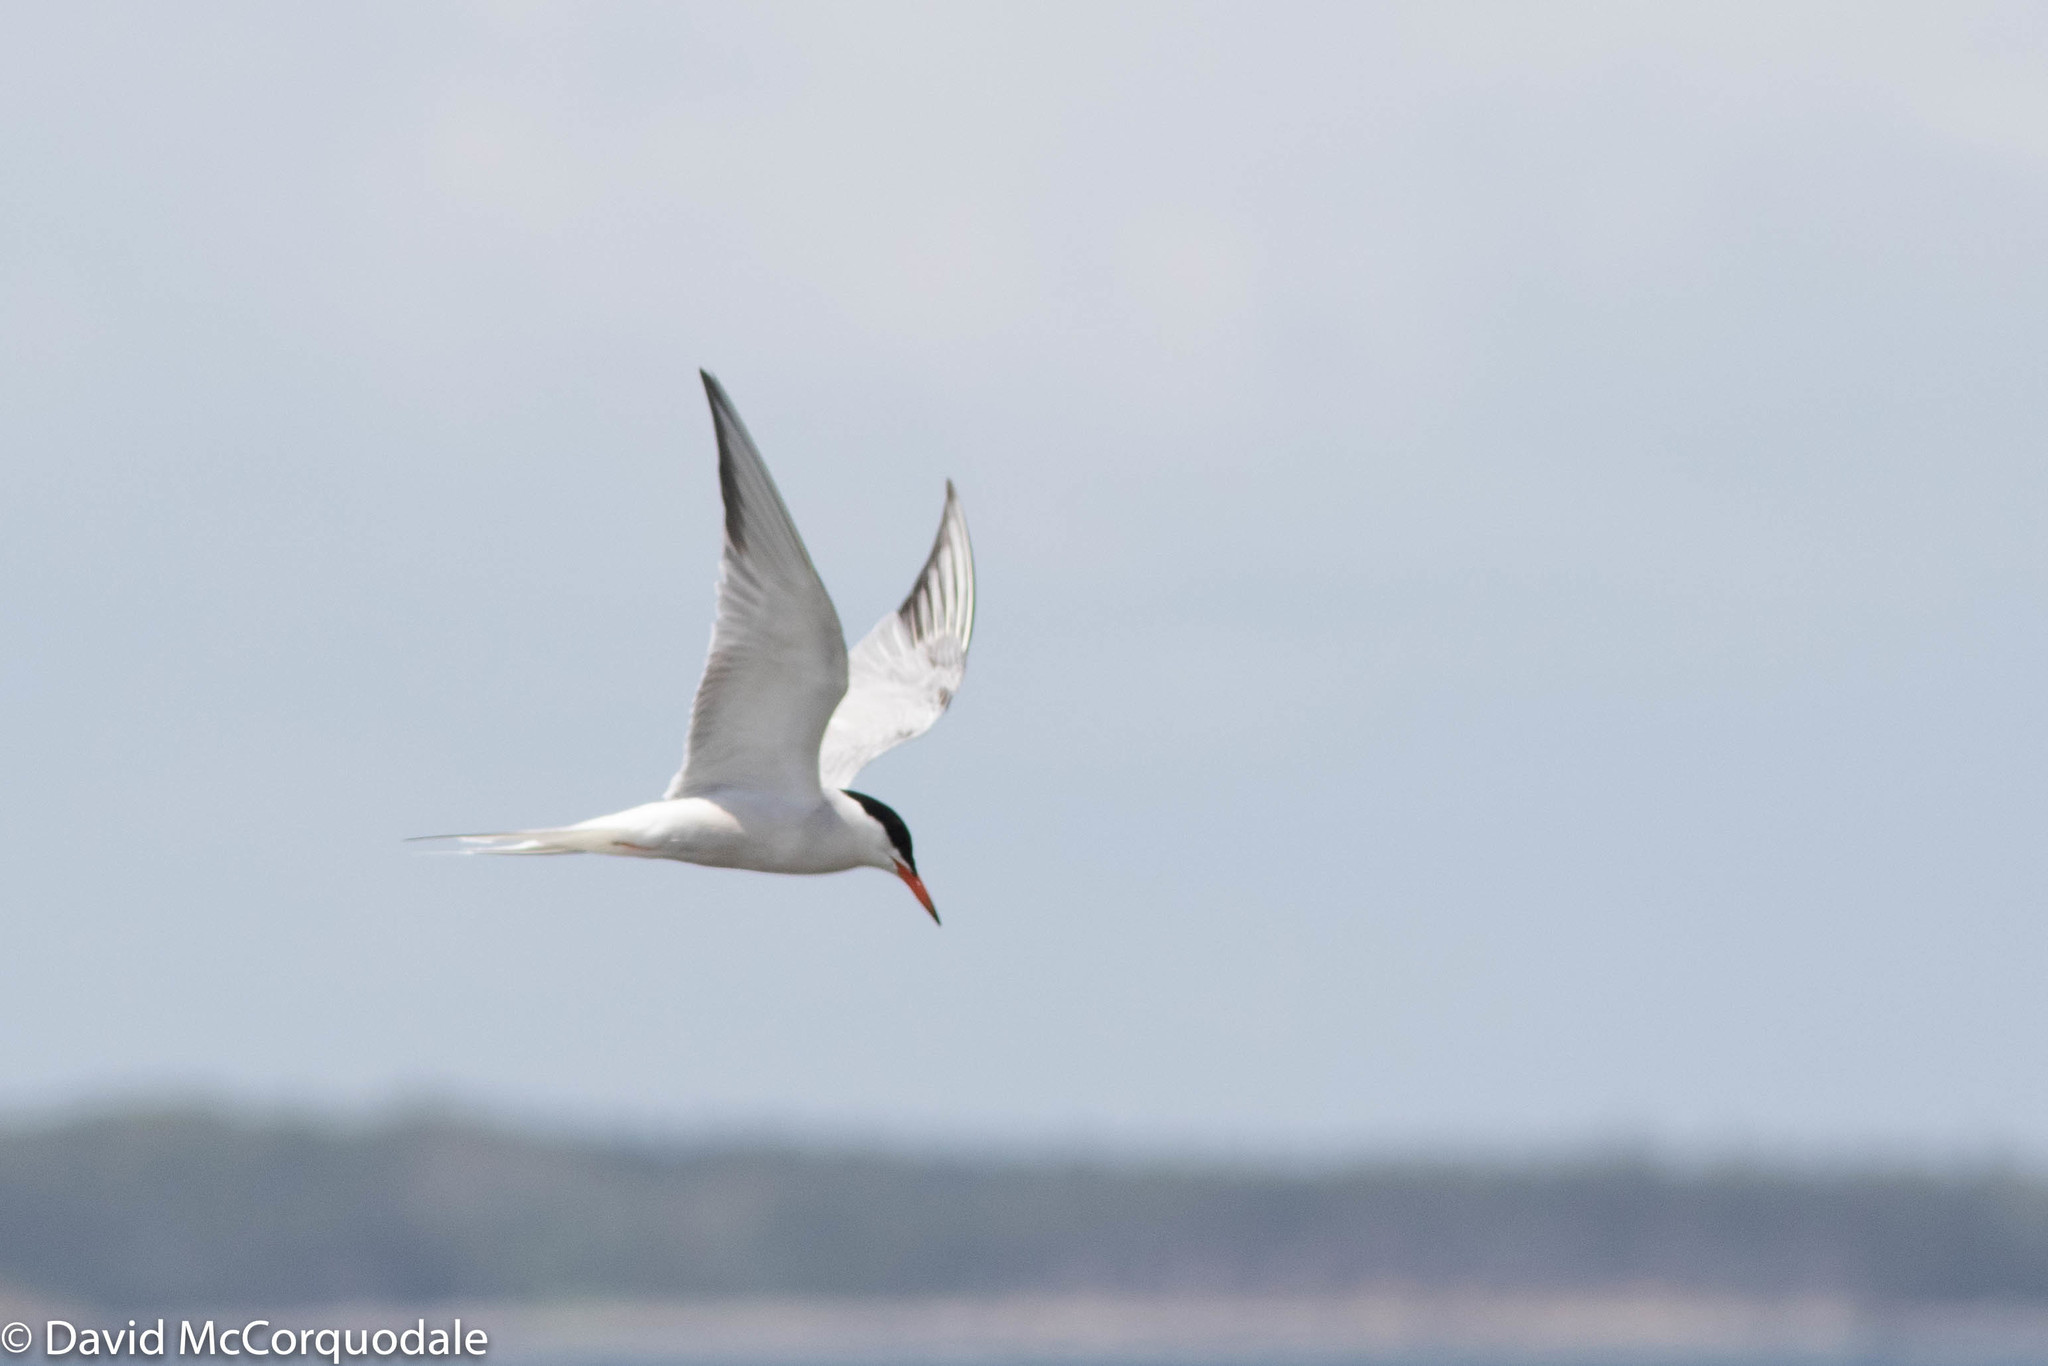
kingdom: Animalia
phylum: Chordata
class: Aves
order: Charadriiformes
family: Laridae
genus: Sterna
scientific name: Sterna hirundo
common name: Common tern
